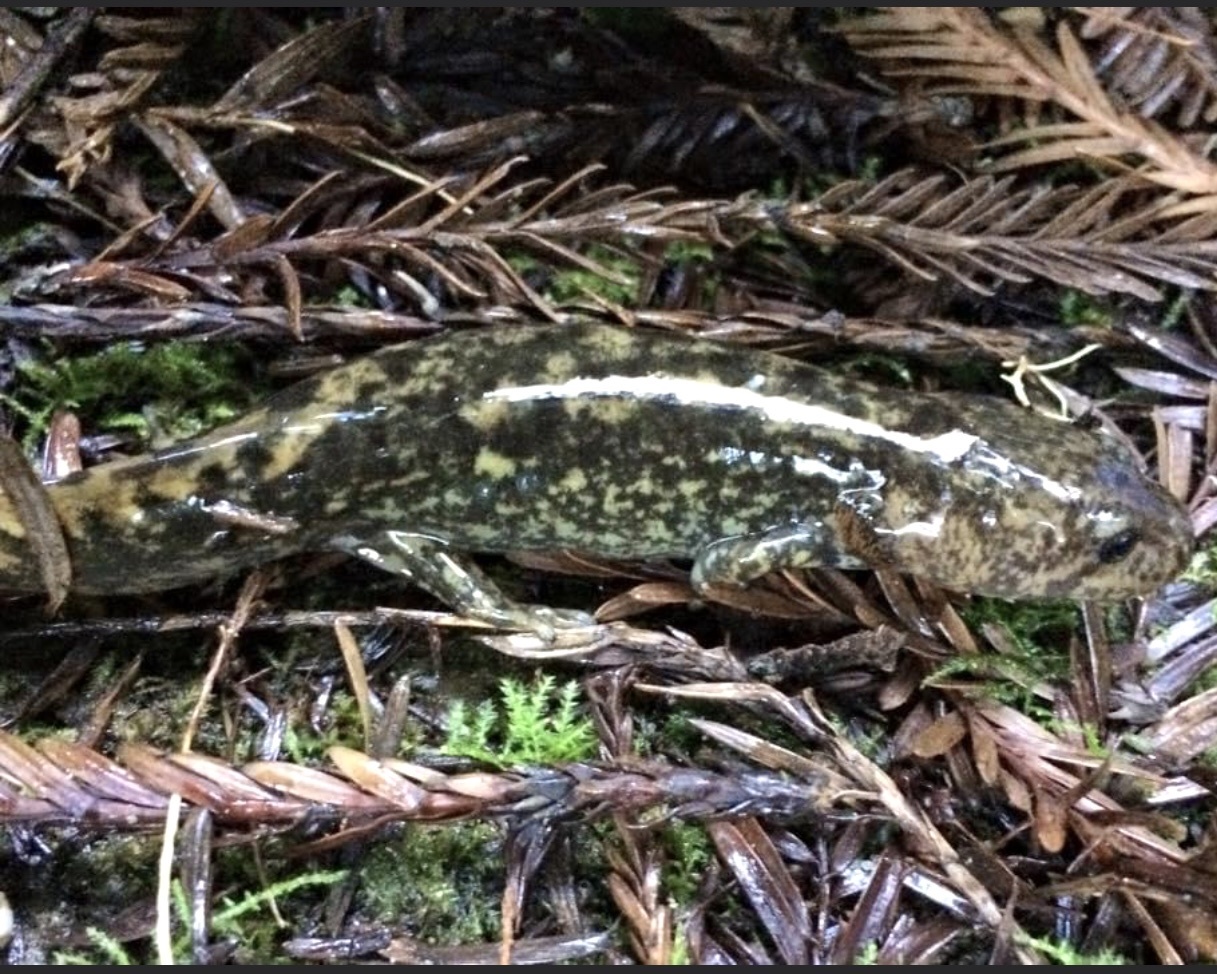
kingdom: Animalia
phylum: Chordata
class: Amphibia
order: Caudata
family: Ambystomatidae
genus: Dicamptodon
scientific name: Dicamptodon tenebrosus
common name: Coastal giant salamander
